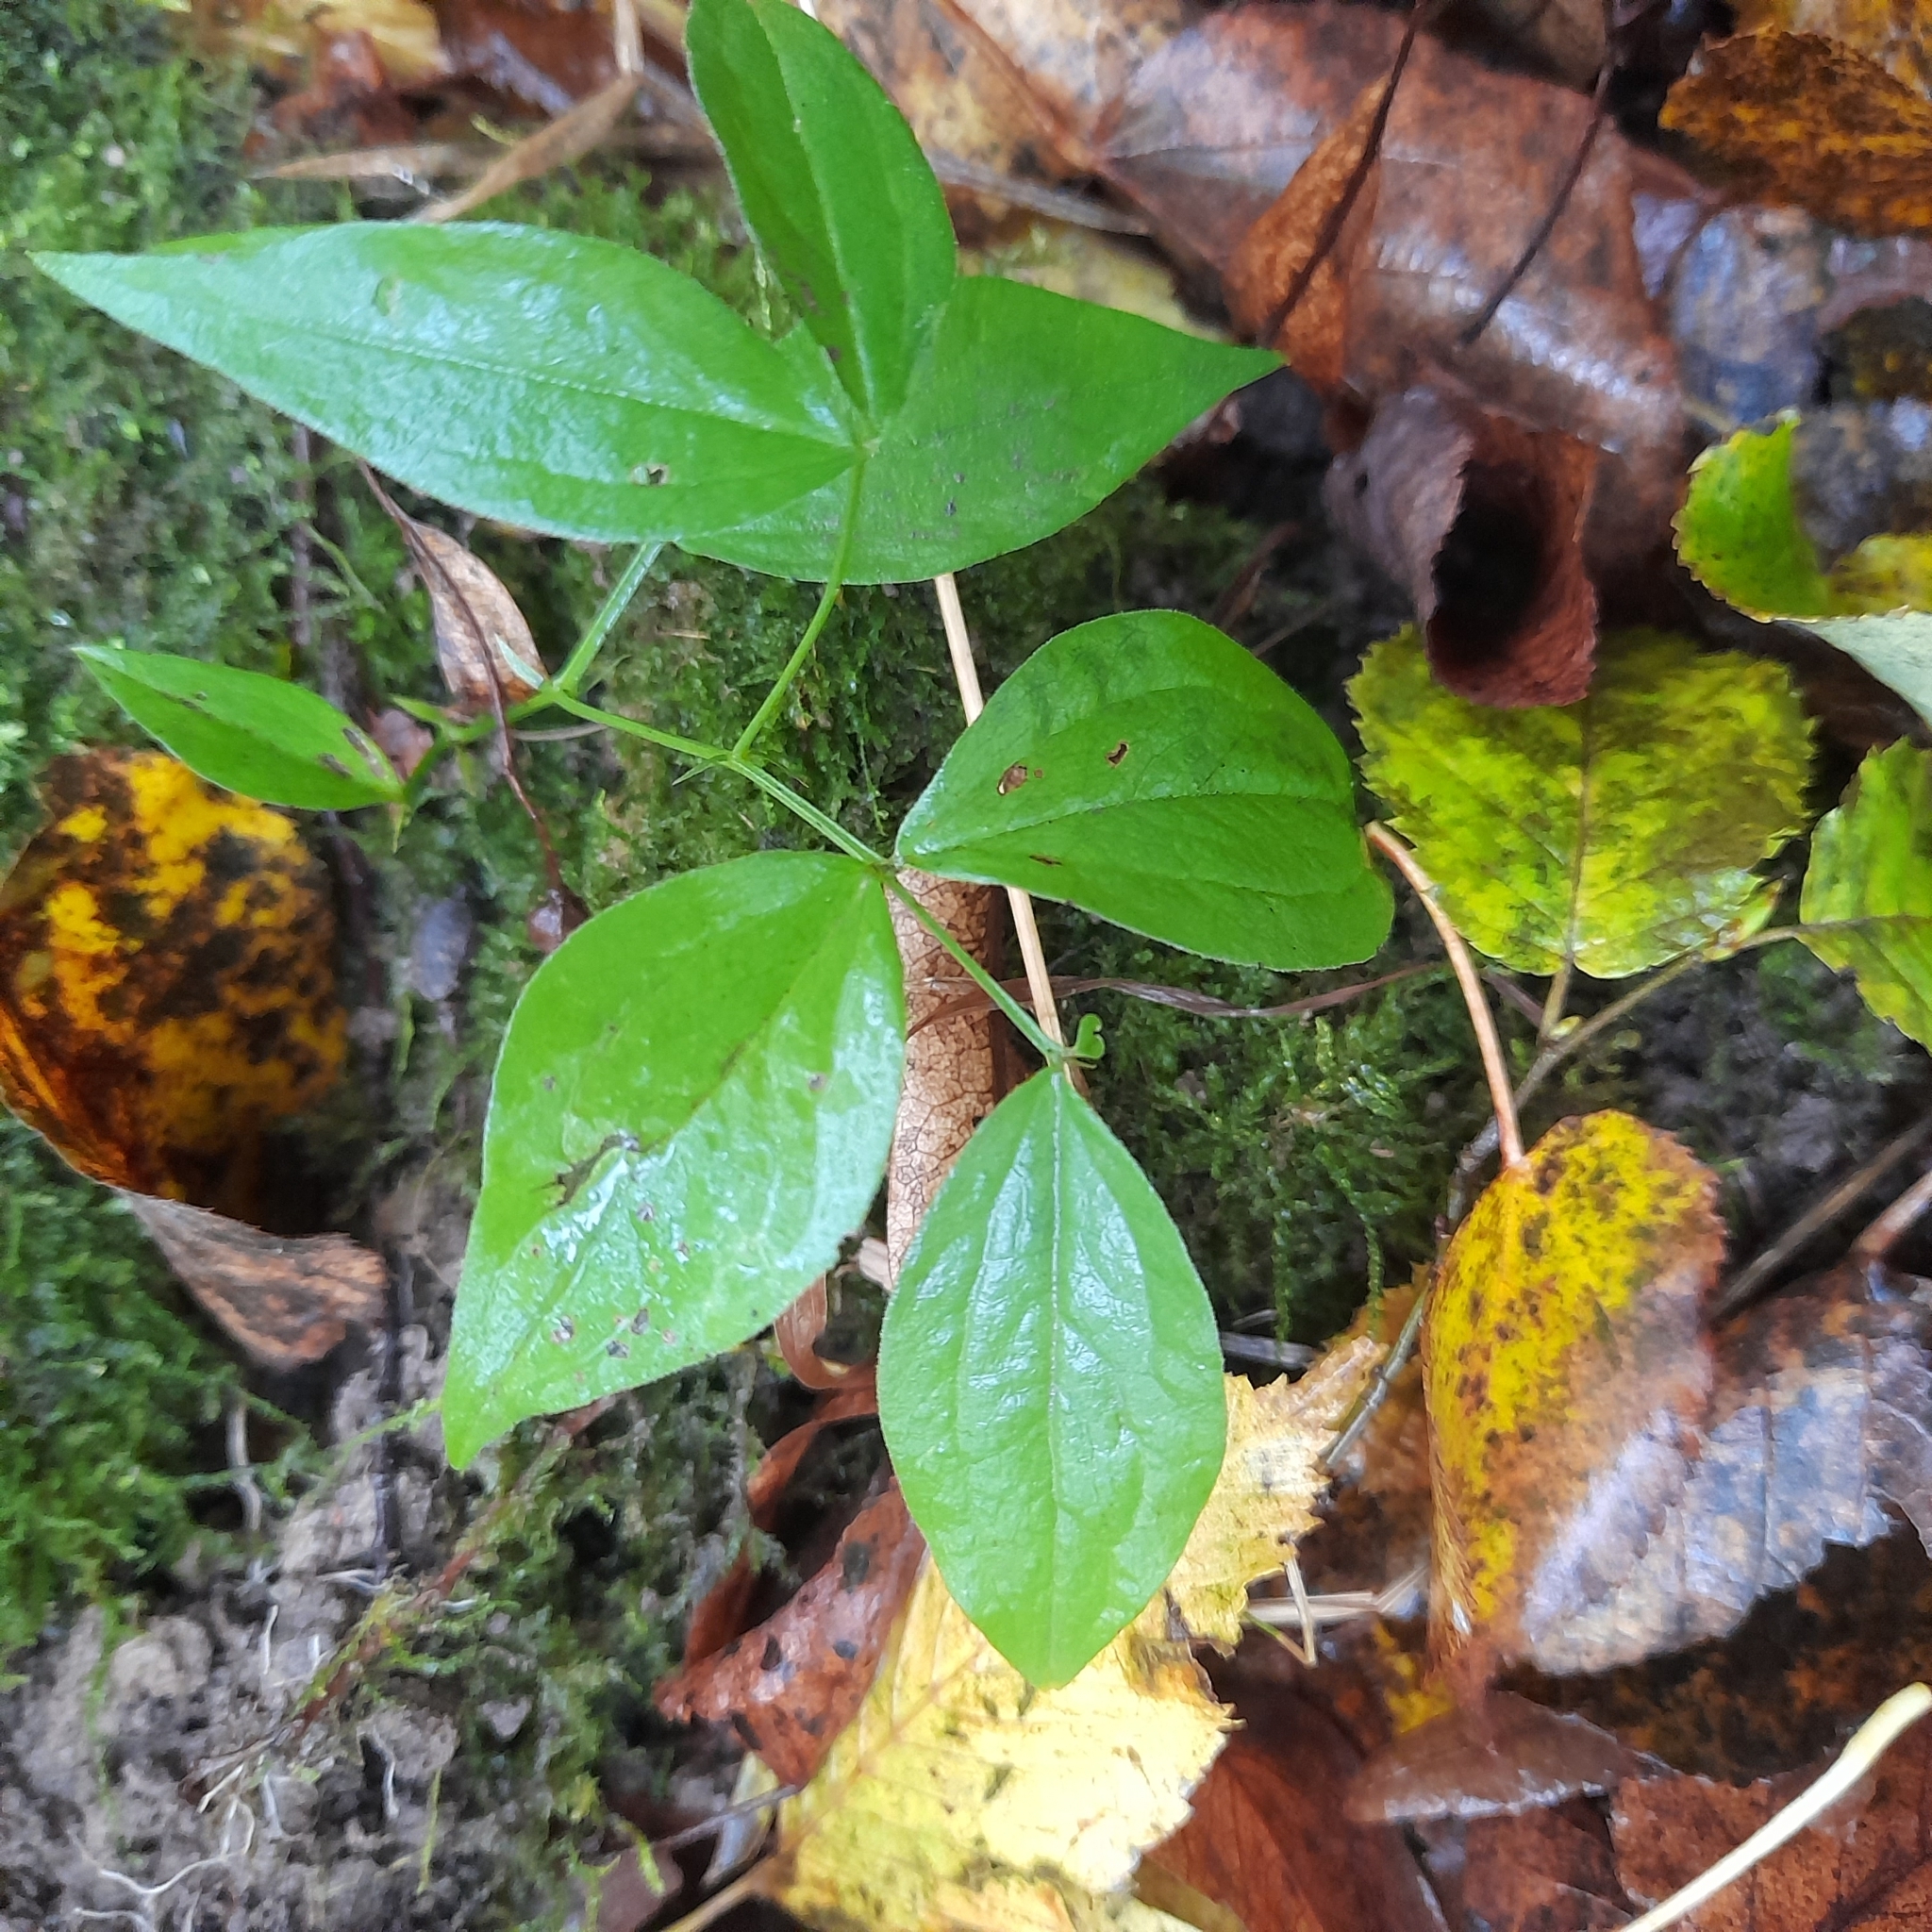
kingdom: Plantae
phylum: Tracheophyta
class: Magnoliopsida
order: Fabales
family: Fabaceae
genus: Lathyrus
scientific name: Lathyrus vernus
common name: Spring pea
